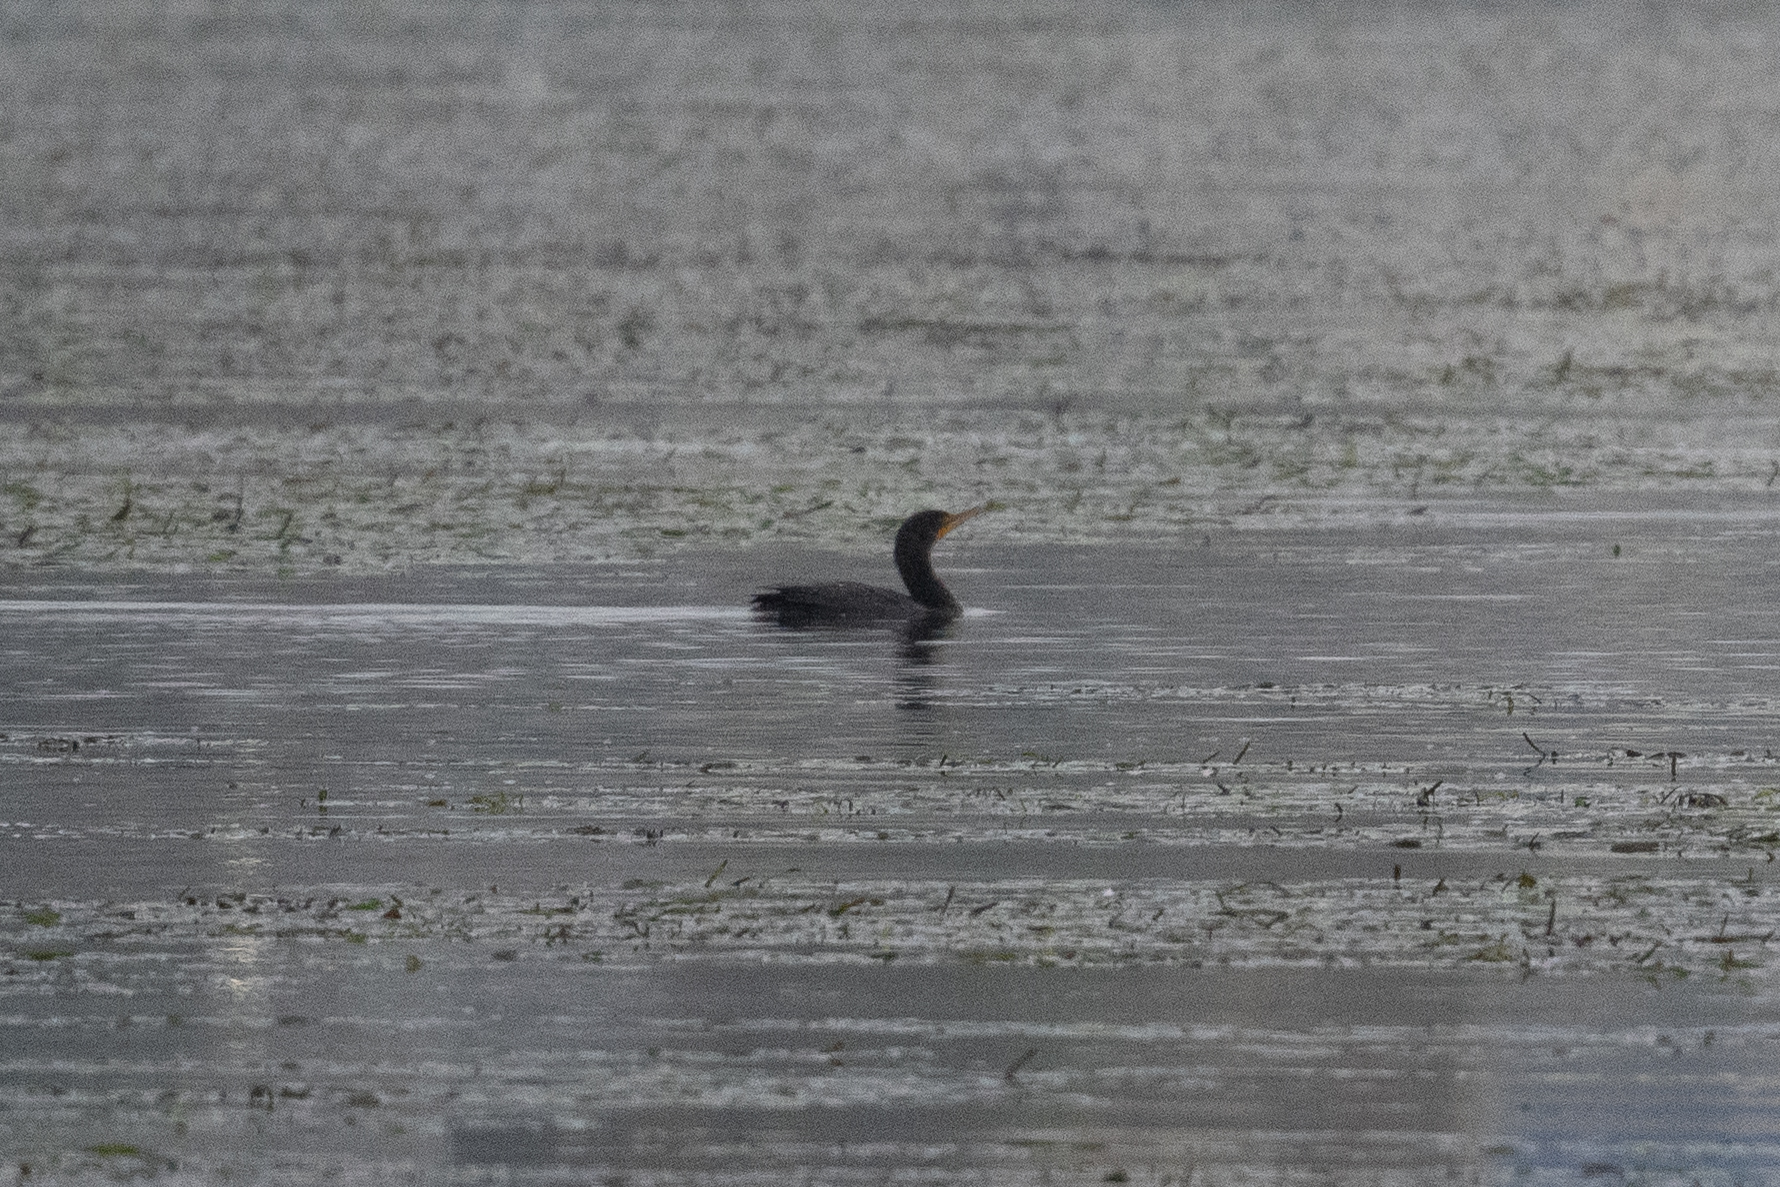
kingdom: Animalia
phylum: Chordata
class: Aves
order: Suliformes
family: Phalacrocoracidae
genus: Phalacrocorax
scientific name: Phalacrocorax auritus
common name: Double-crested cormorant
